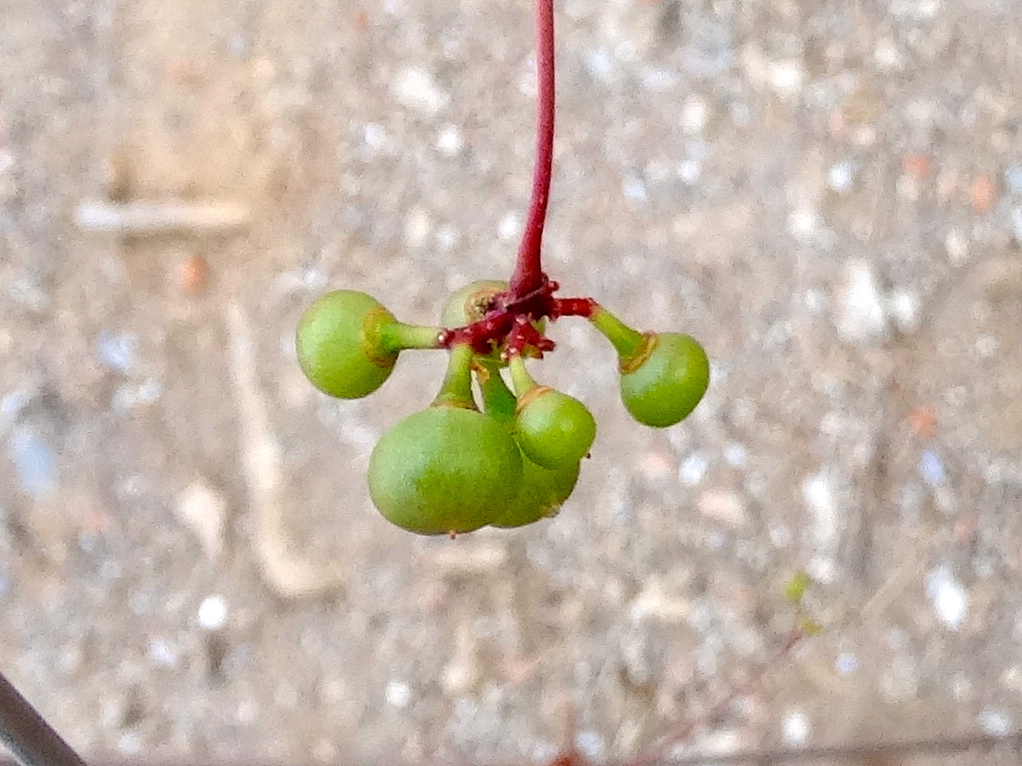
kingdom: Plantae
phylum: Tracheophyta
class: Magnoliopsida
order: Vitales
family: Vitaceae
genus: Parthenocissus
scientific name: Parthenocissus quinquefolia
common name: Virginia-creeper
